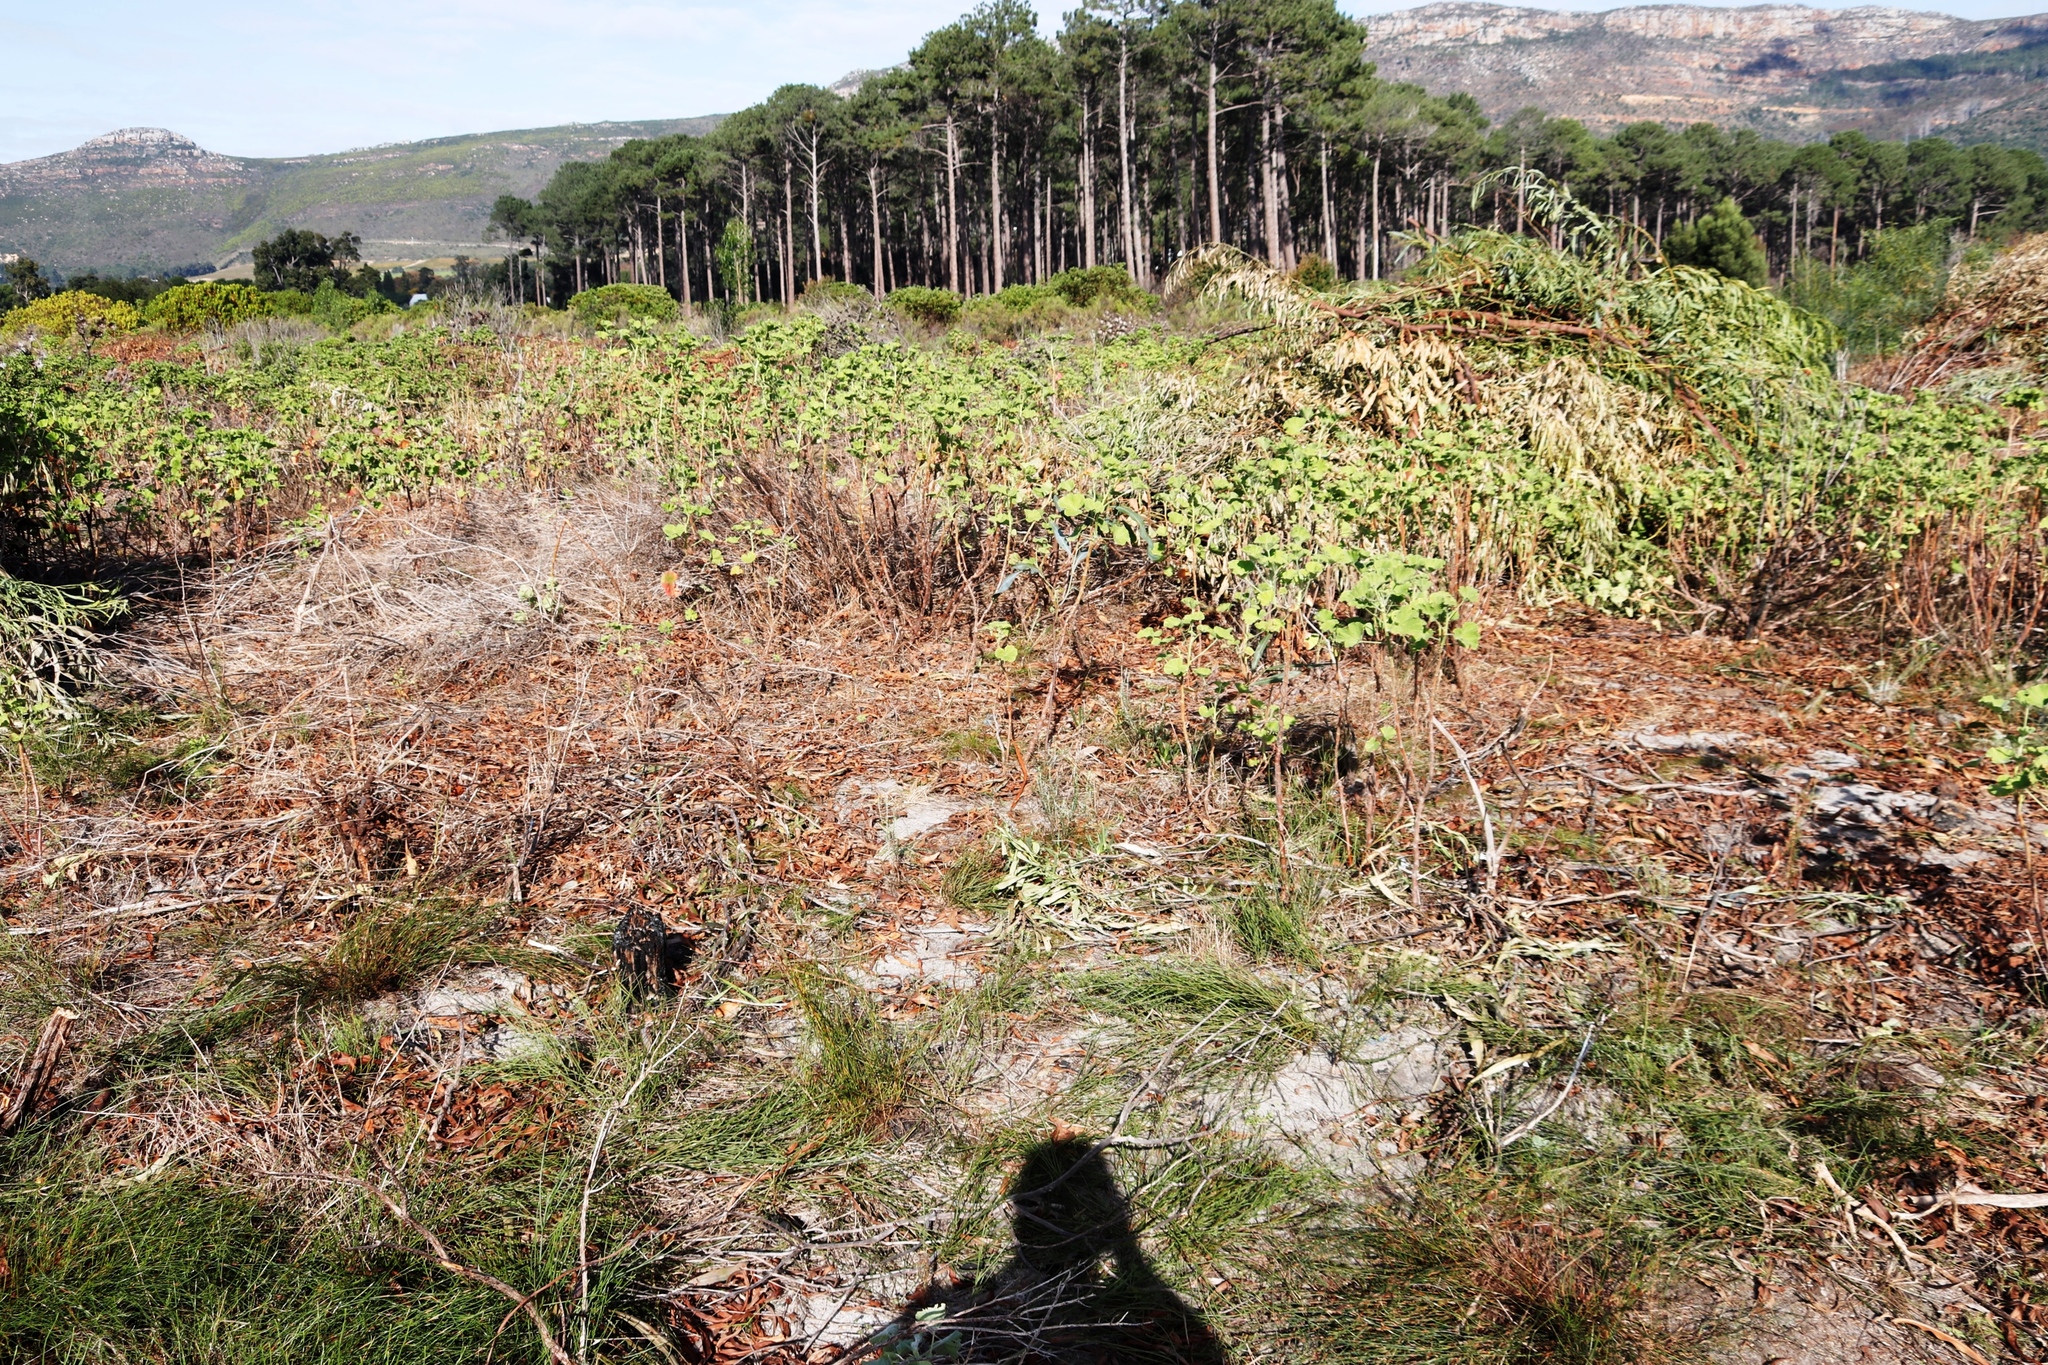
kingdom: Plantae
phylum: Tracheophyta
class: Magnoliopsida
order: Geraniales
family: Geraniaceae
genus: Pelargonium
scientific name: Pelargonium cucullatum
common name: Tree pelargonium
